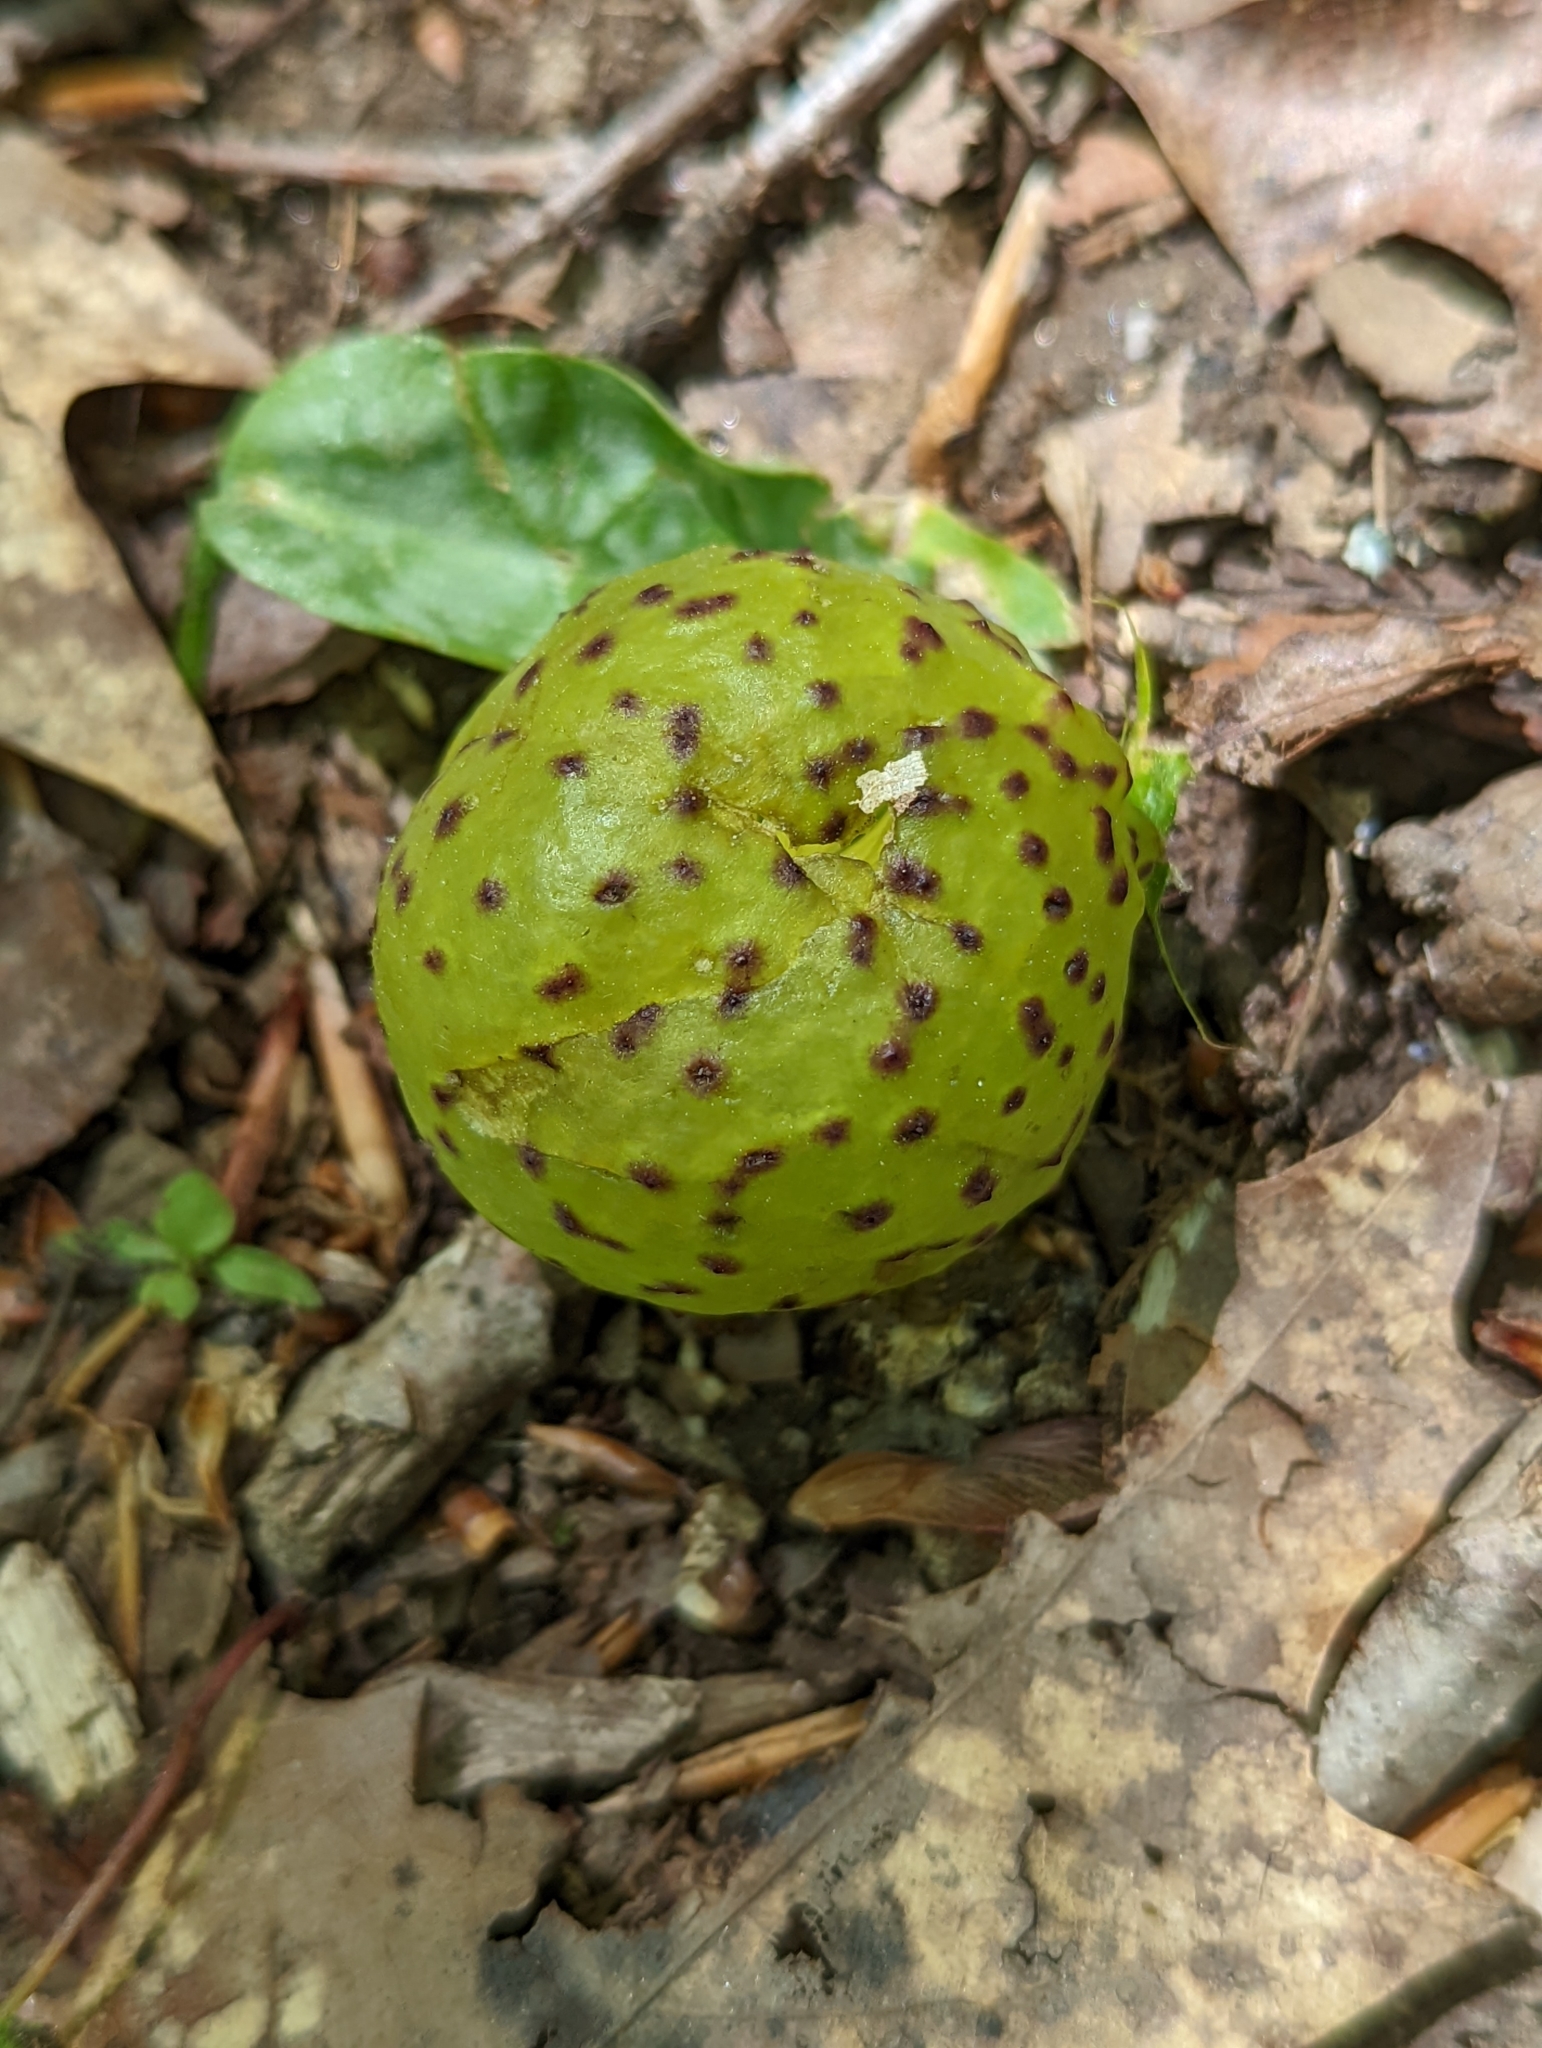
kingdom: Animalia
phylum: Arthropoda
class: Insecta
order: Hymenoptera
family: Cynipidae
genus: Amphibolips
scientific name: Amphibolips
